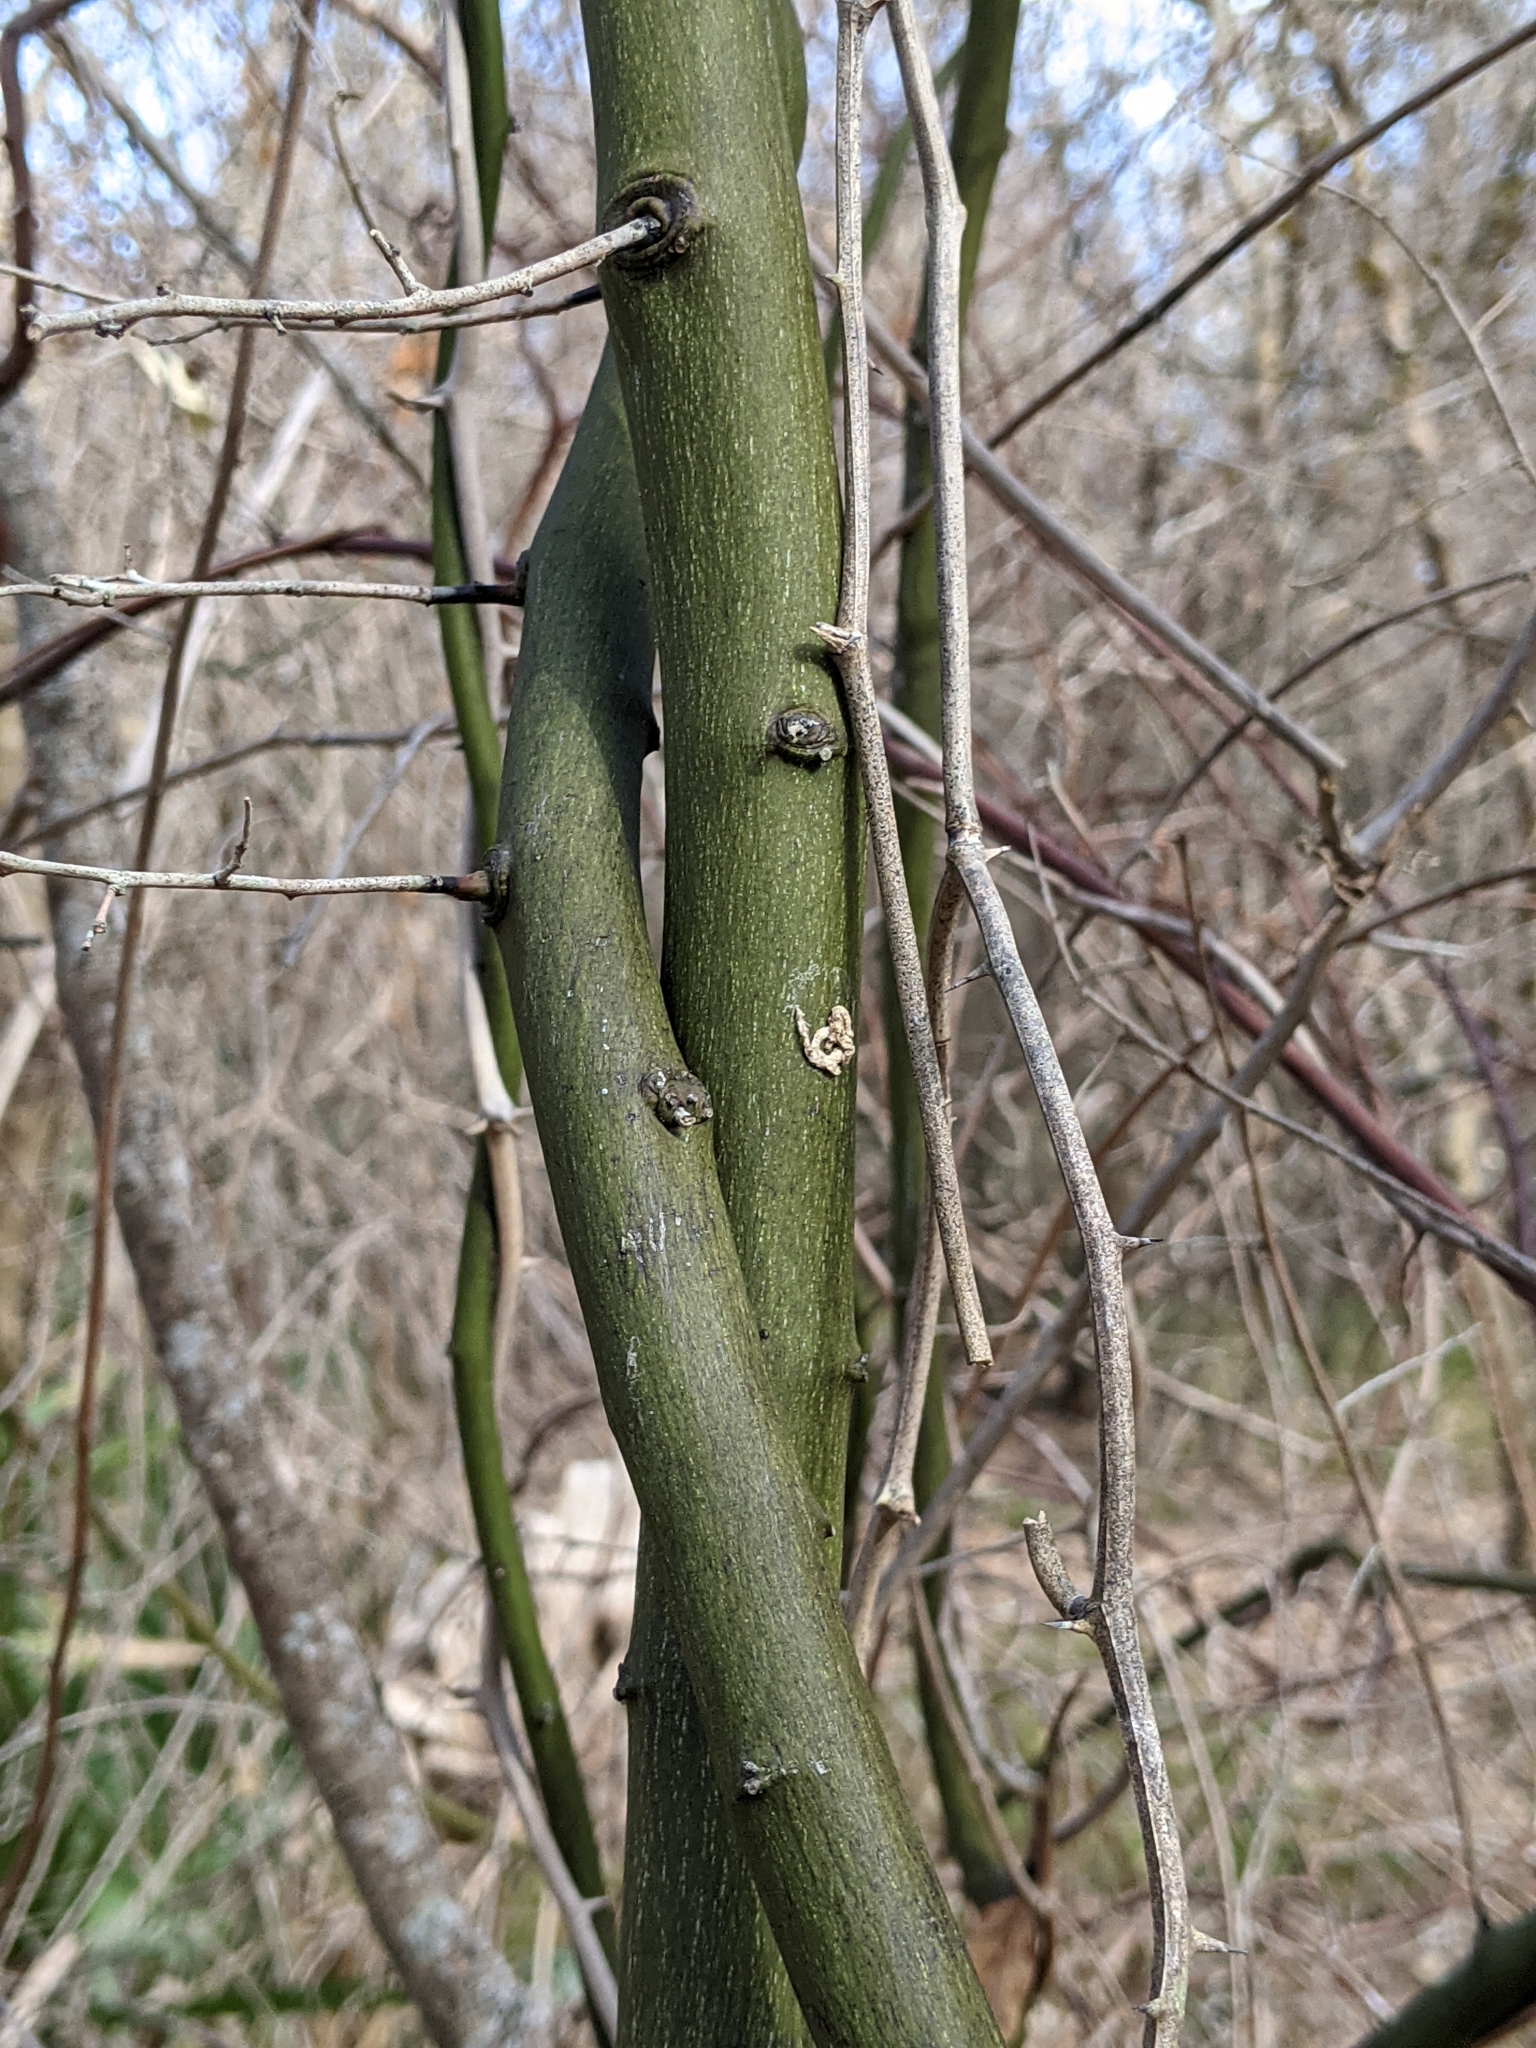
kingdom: Plantae
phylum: Tracheophyta
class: Magnoliopsida
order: Rosales
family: Rhamnaceae
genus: Berchemia
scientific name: Berchemia scandens
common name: Supplejack
